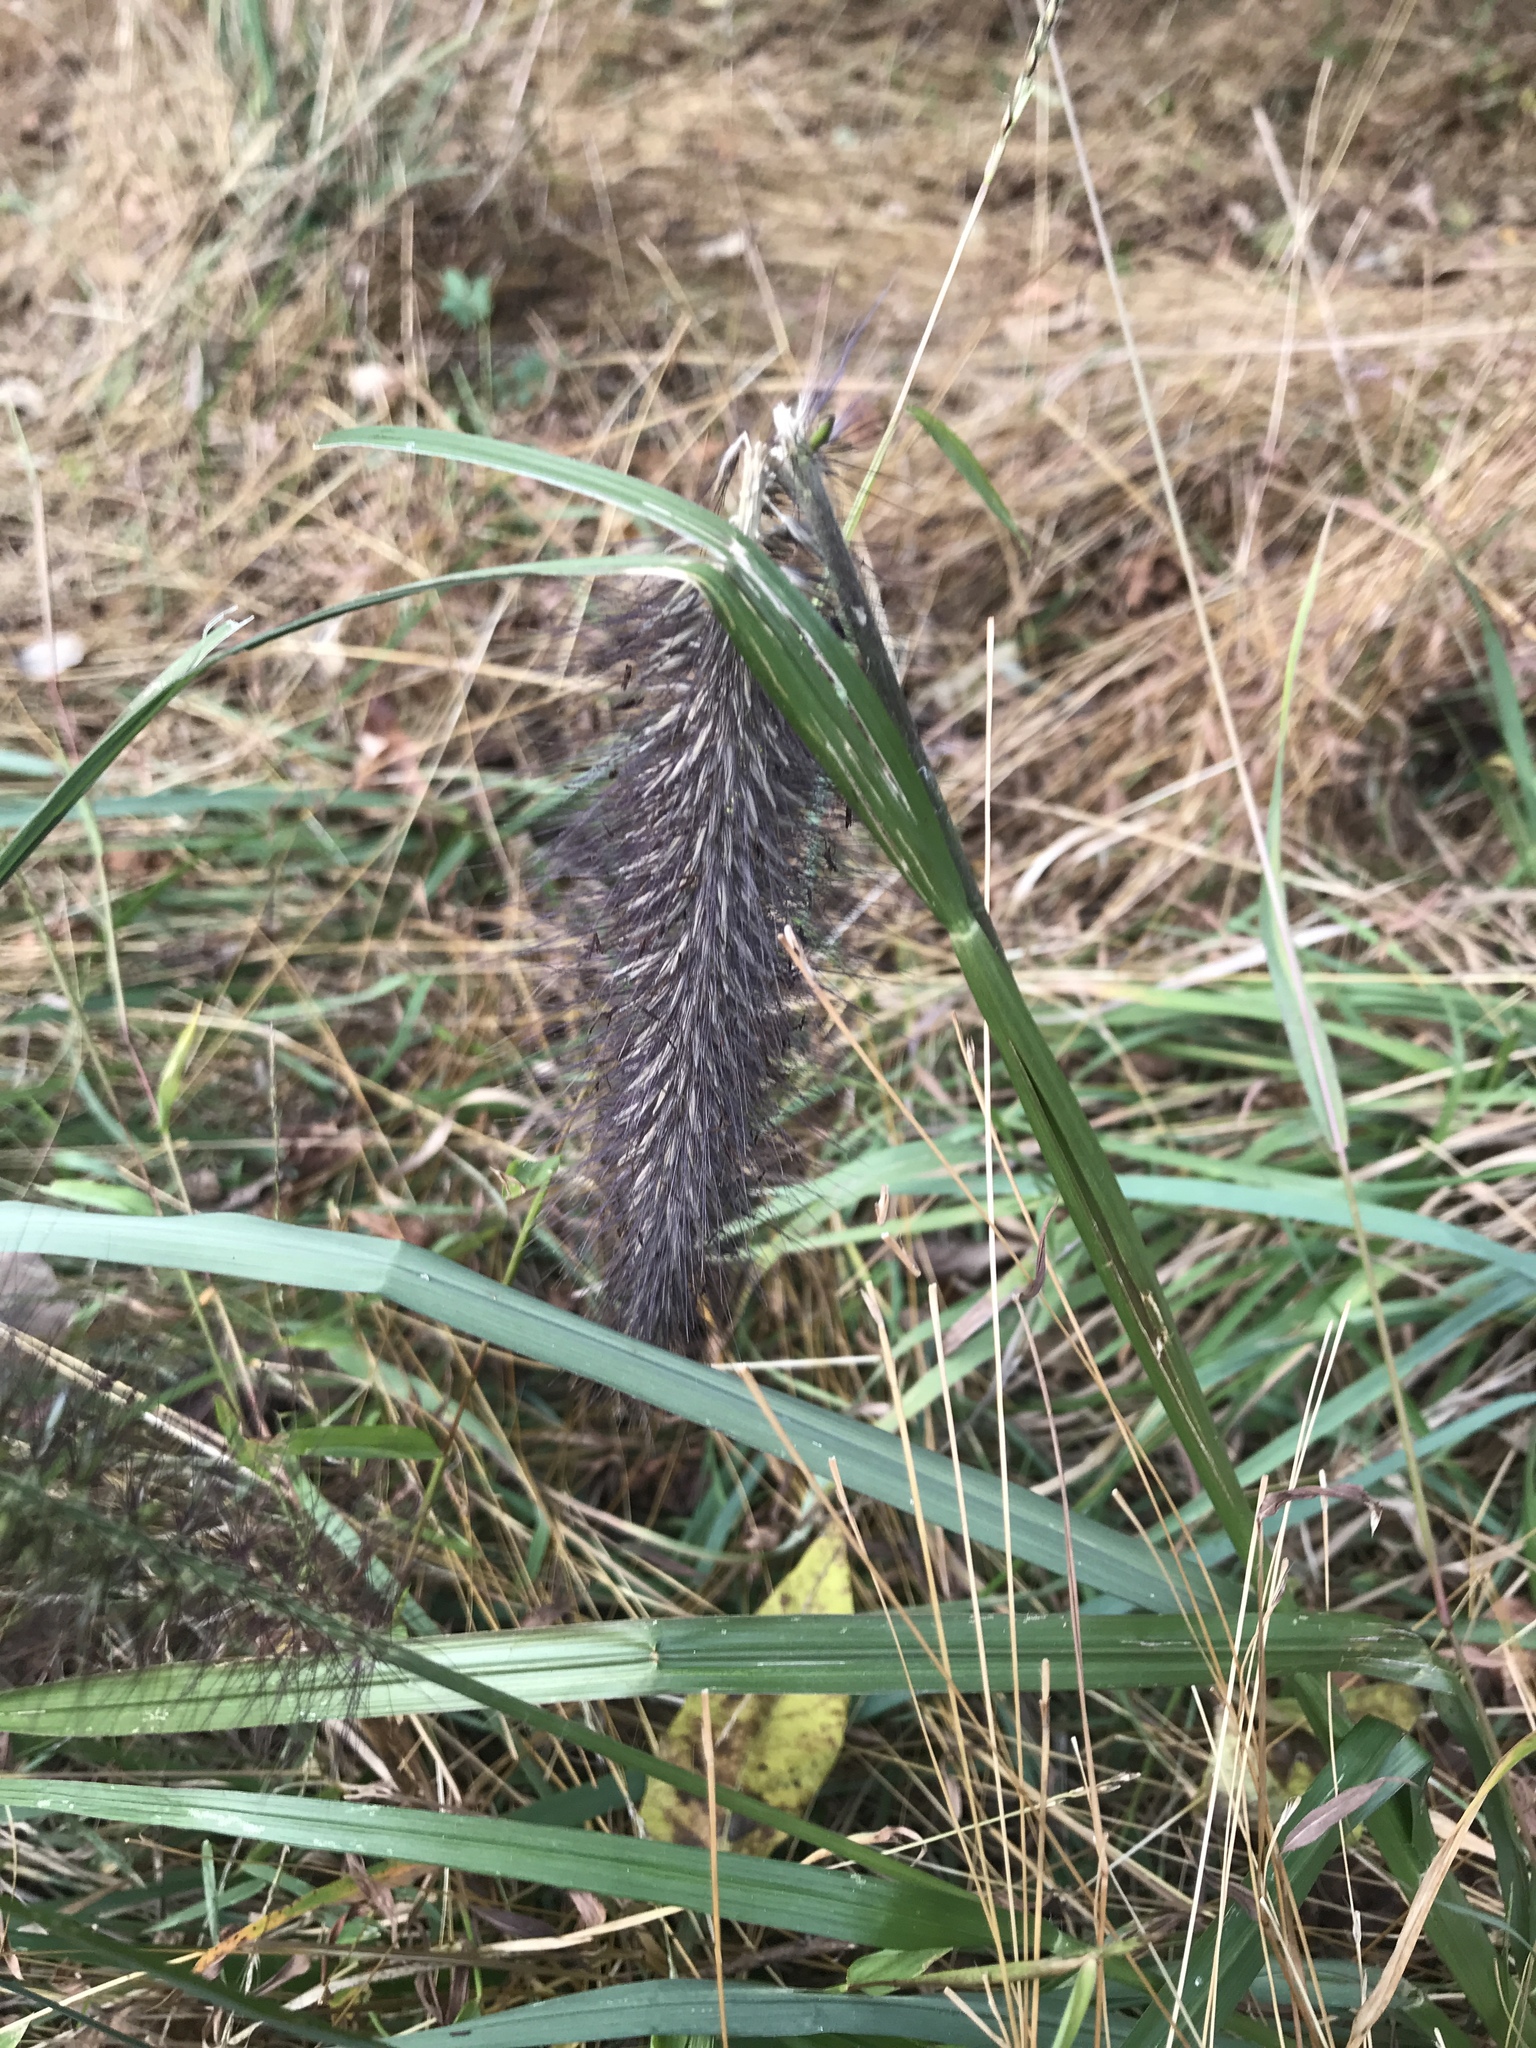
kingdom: Plantae
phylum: Tracheophyta
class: Liliopsida
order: Poales
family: Poaceae
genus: Cenchrus
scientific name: Cenchrus alopecuroides
